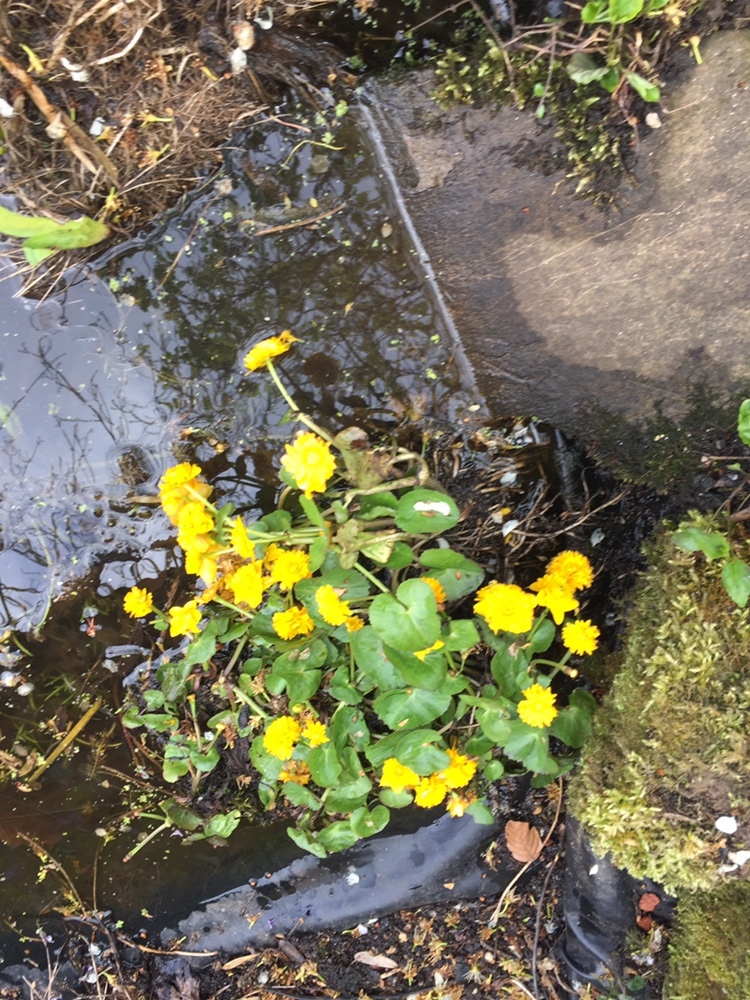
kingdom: Plantae
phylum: Tracheophyta
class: Magnoliopsida
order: Ranunculales
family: Ranunculaceae
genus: Caltha
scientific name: Caltha palustris
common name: Marsh marigold
